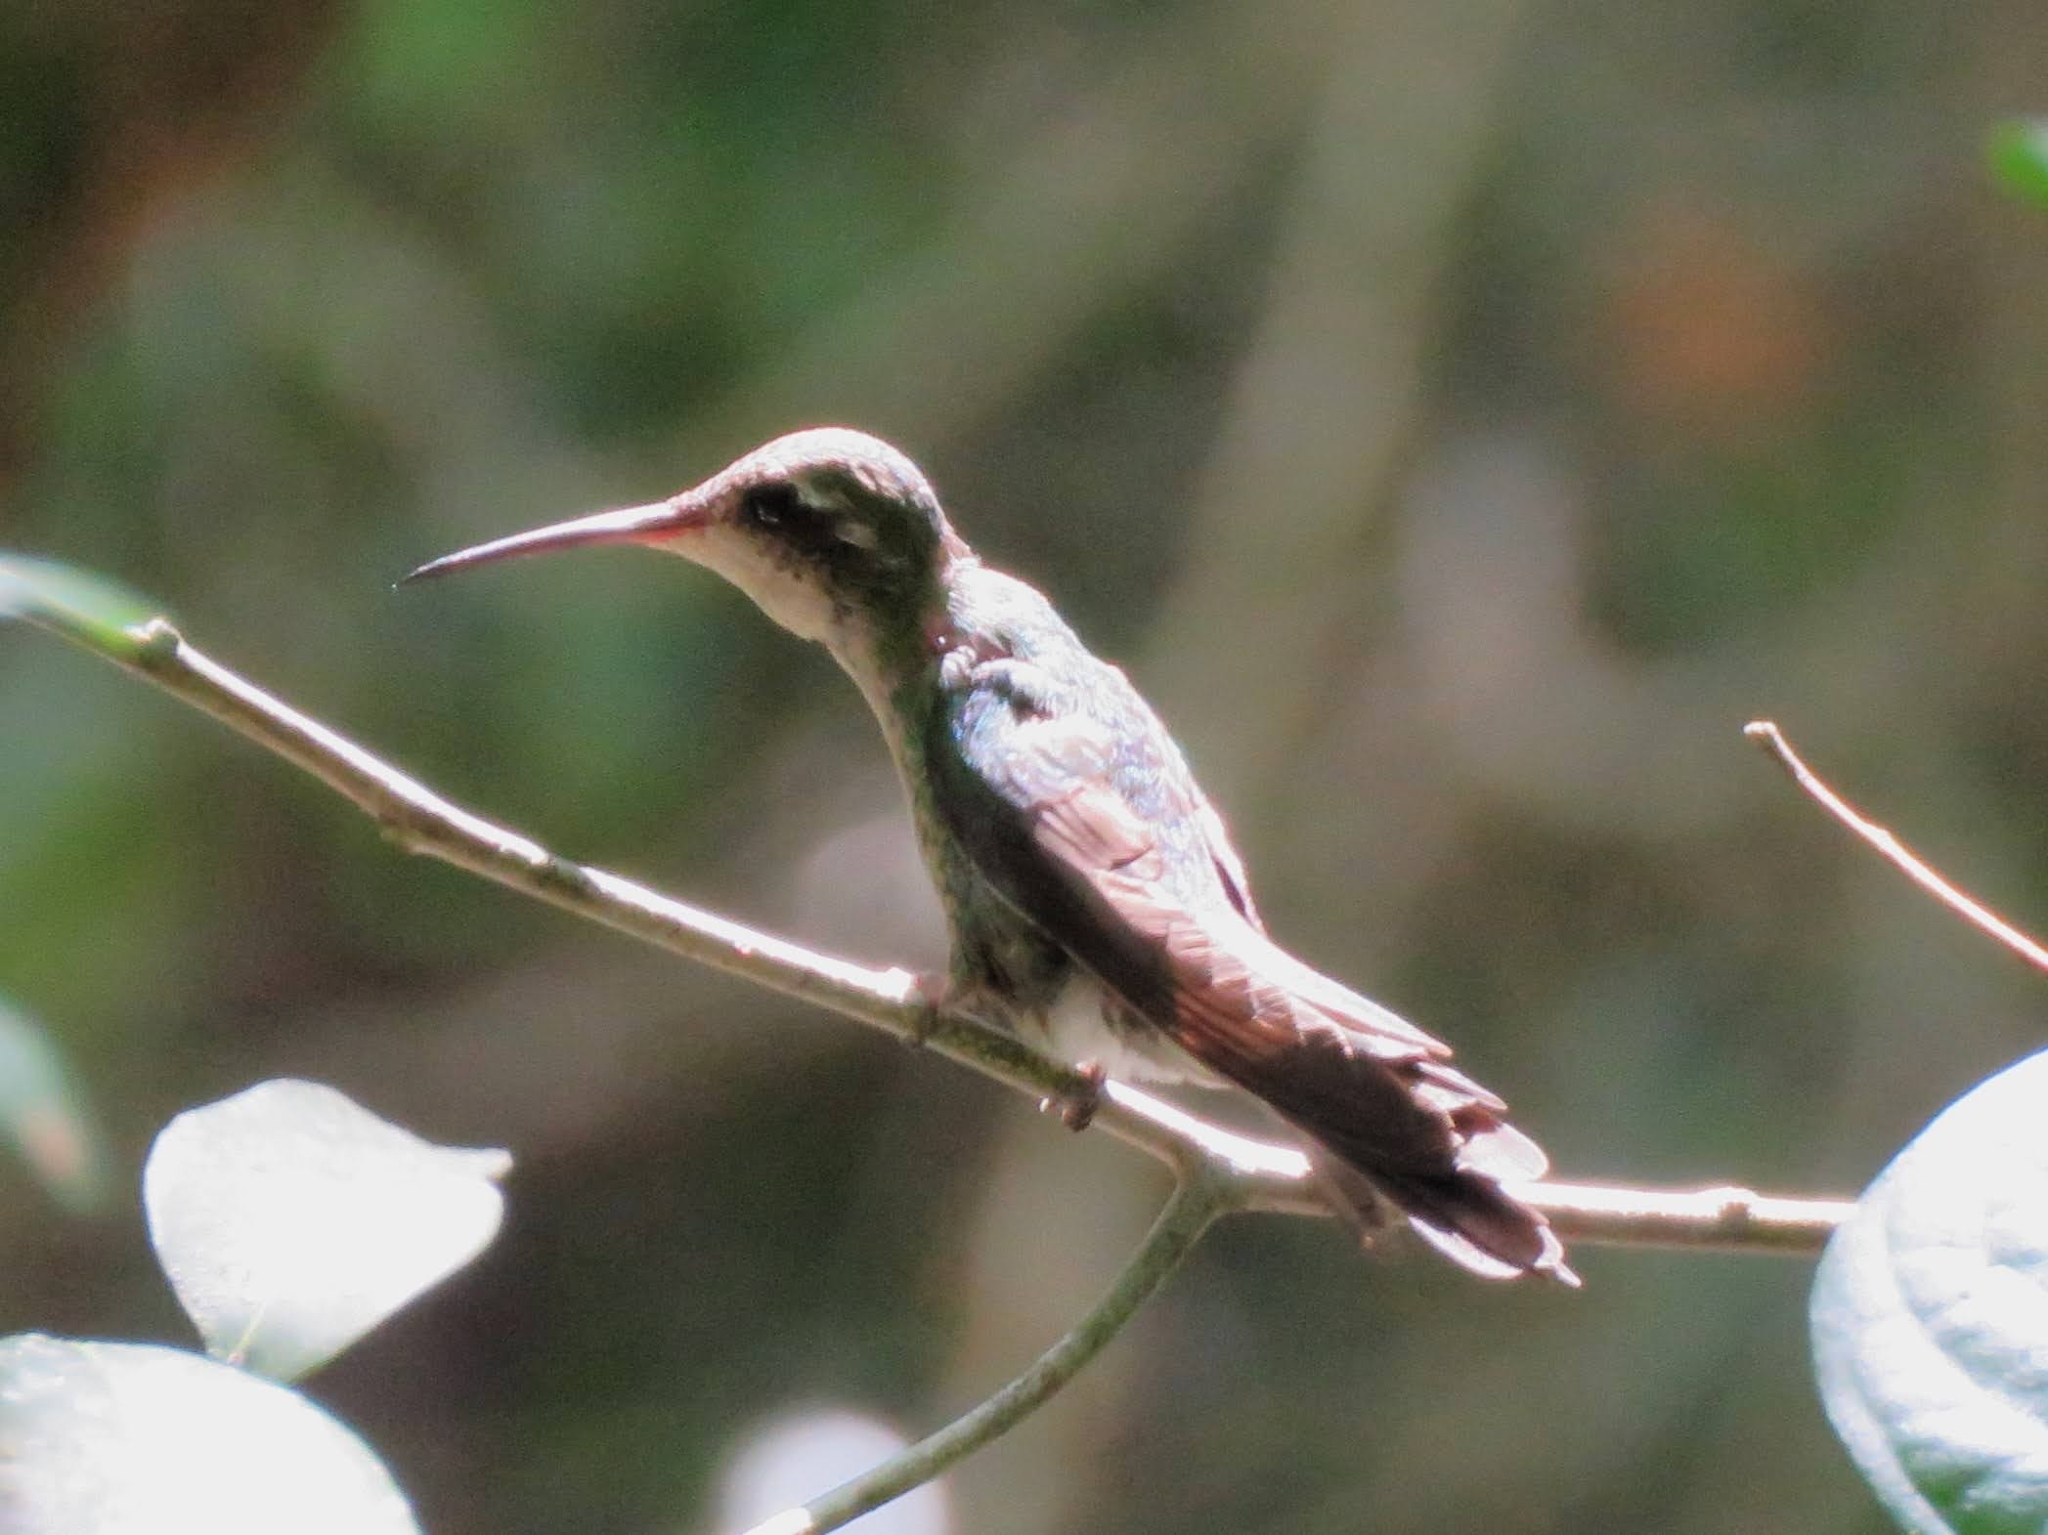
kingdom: Animalia
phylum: Chordata
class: Aves
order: Apodiformes
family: Trochilidae
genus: Riccordia
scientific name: Riccordia ricordii
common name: Cuban emerald
